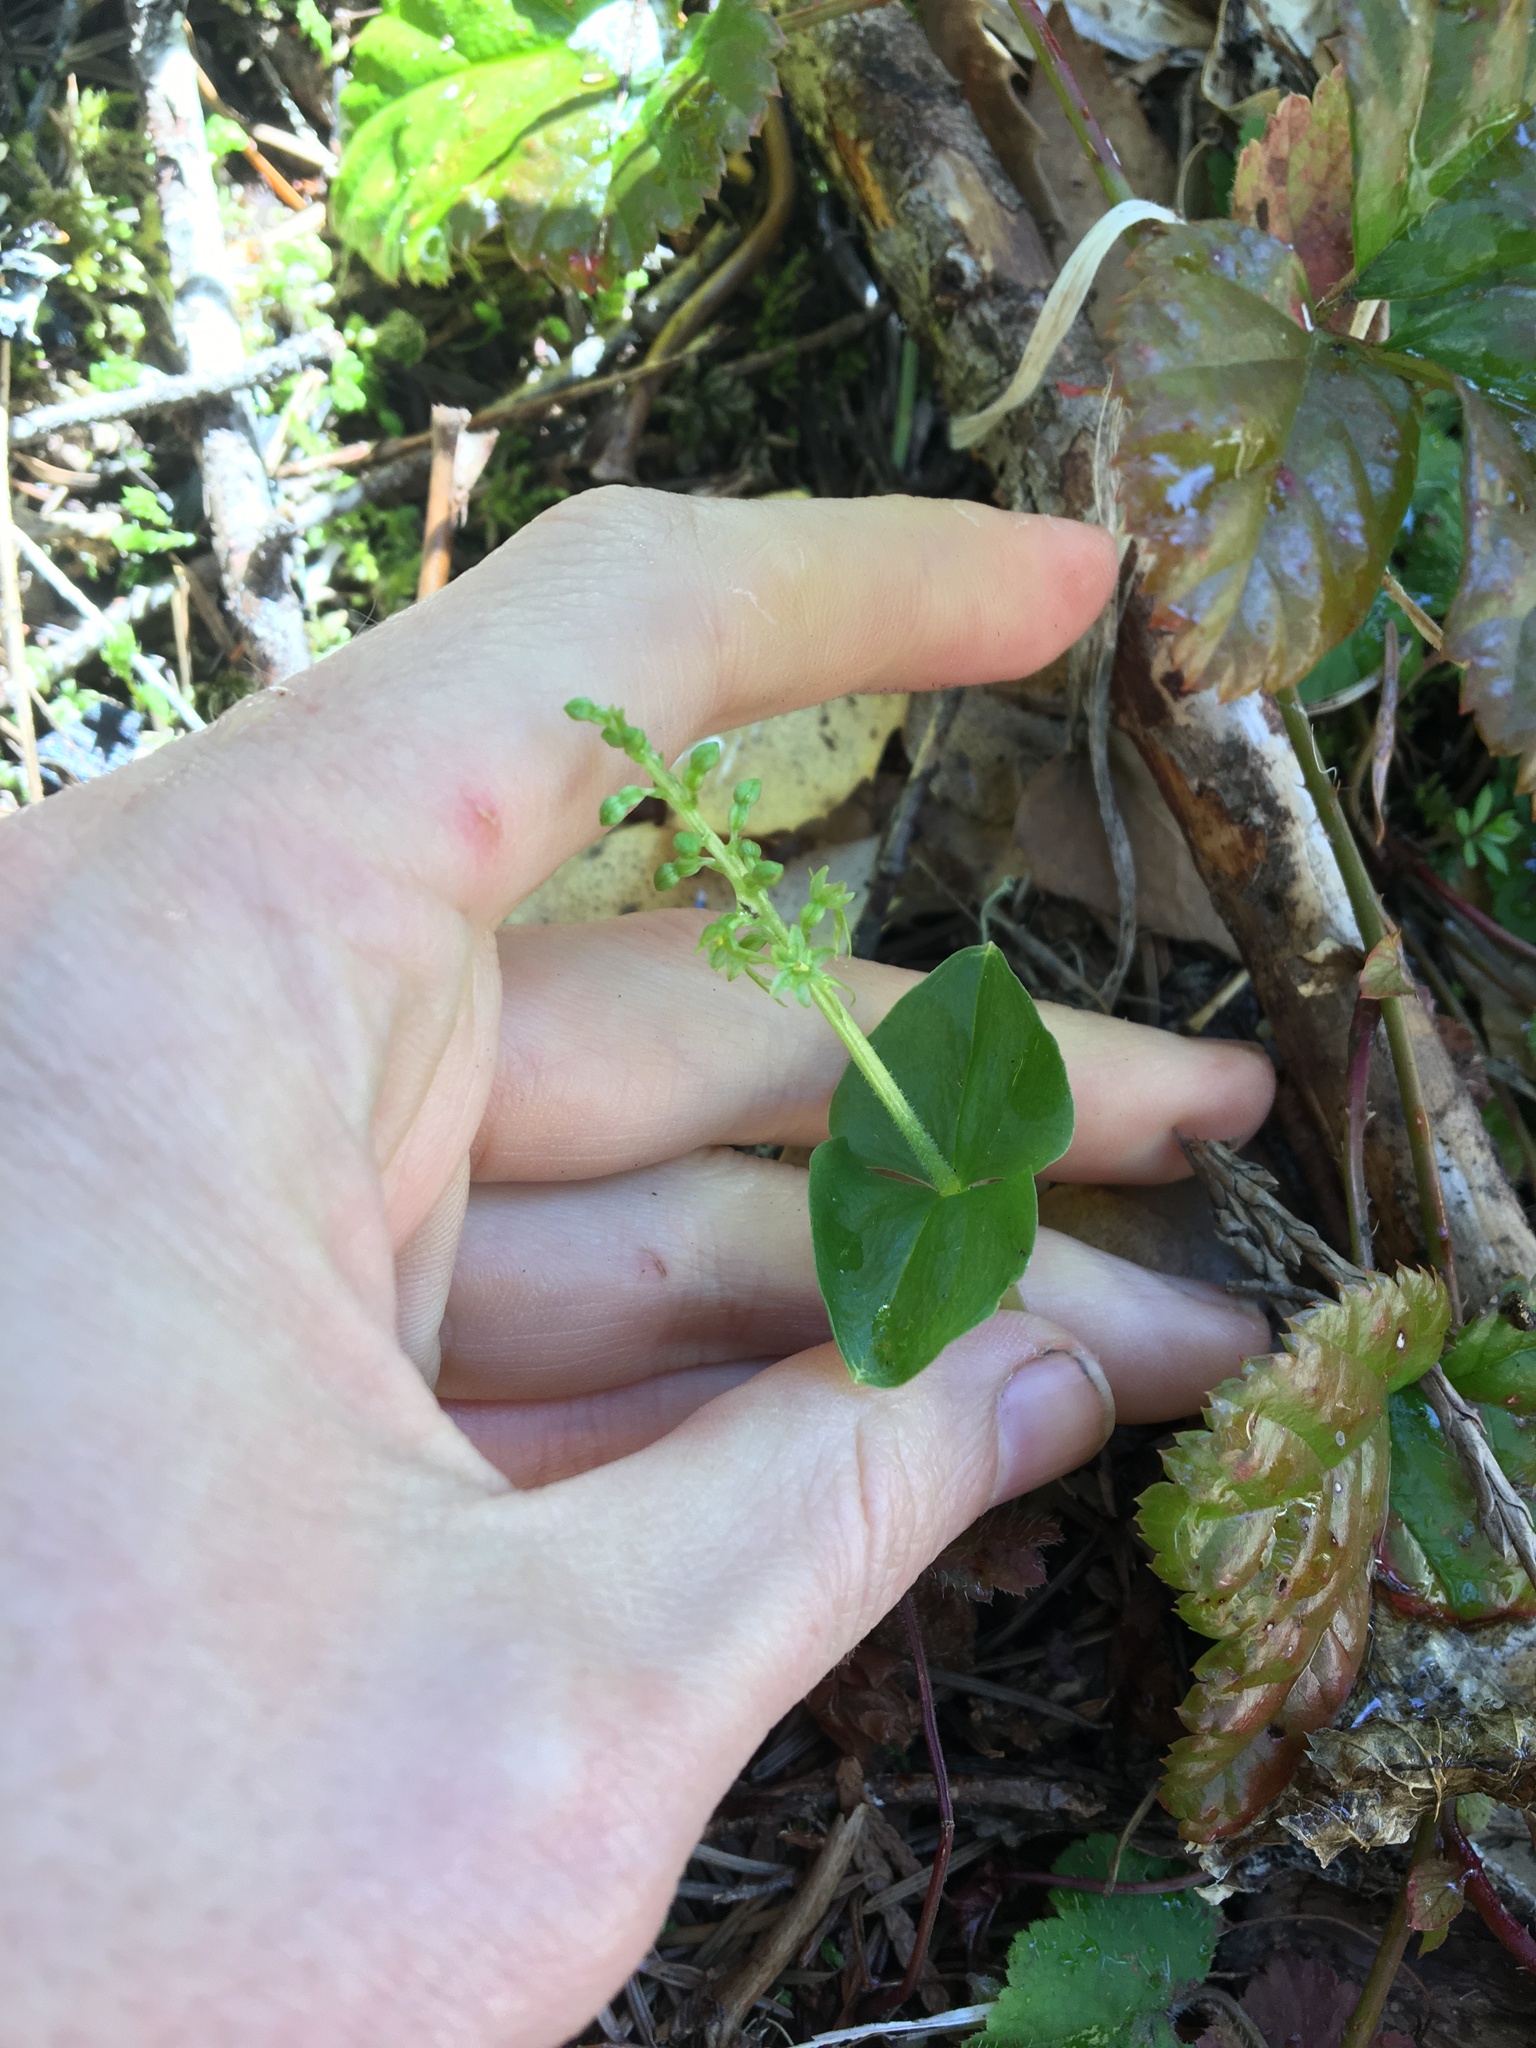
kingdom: Plantae
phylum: Tracheophyta
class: Liliopsida
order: Asparagales
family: Orchidaceae
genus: Neottia
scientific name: Neottia cordata
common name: Lesser twayblade
